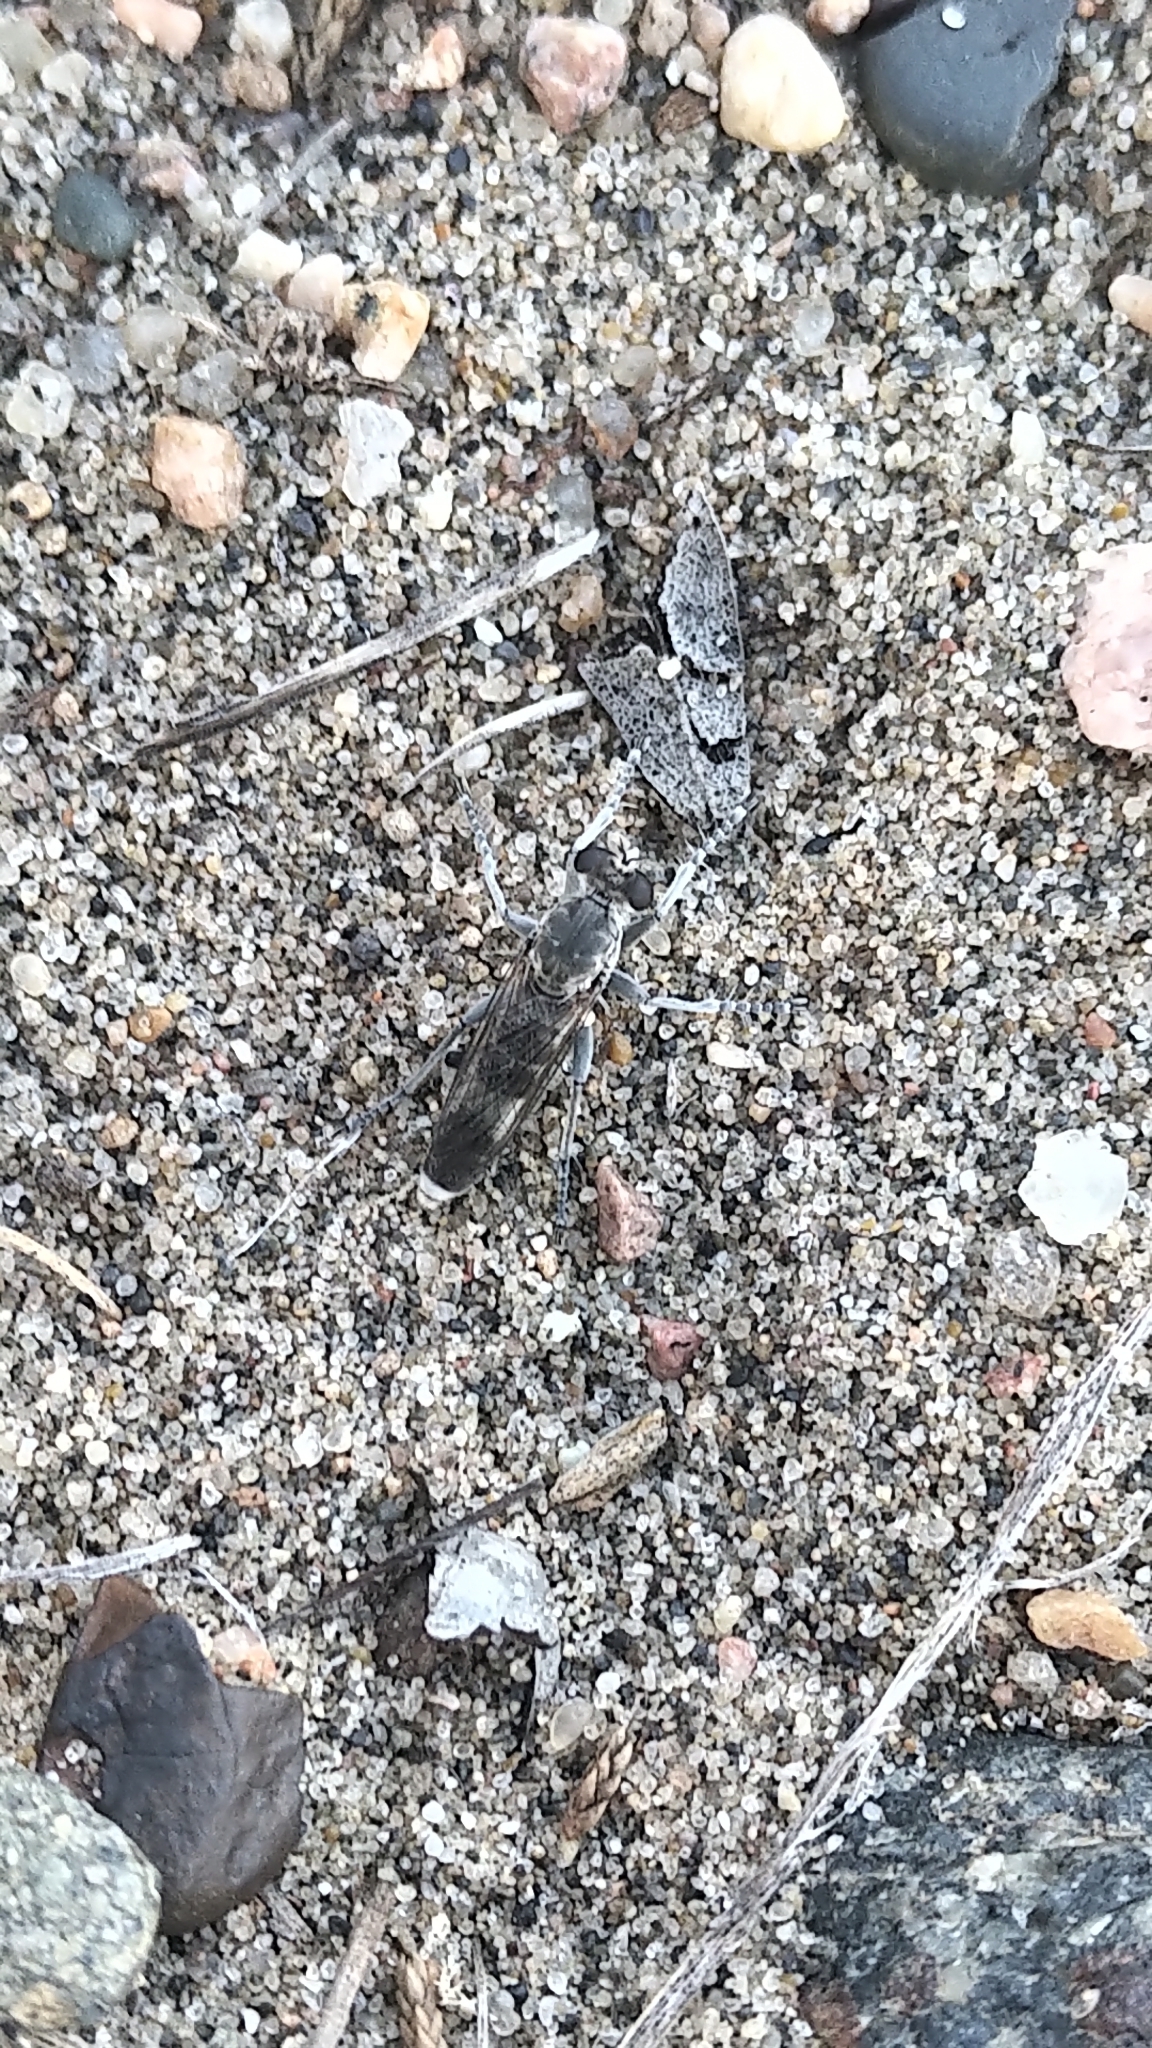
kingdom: Animalia
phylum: Arthropoda
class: Insecta
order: Diptera
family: Asilidae
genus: Stichopogon
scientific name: Stichopogon trifasciatus
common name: Three-banded robber fly
